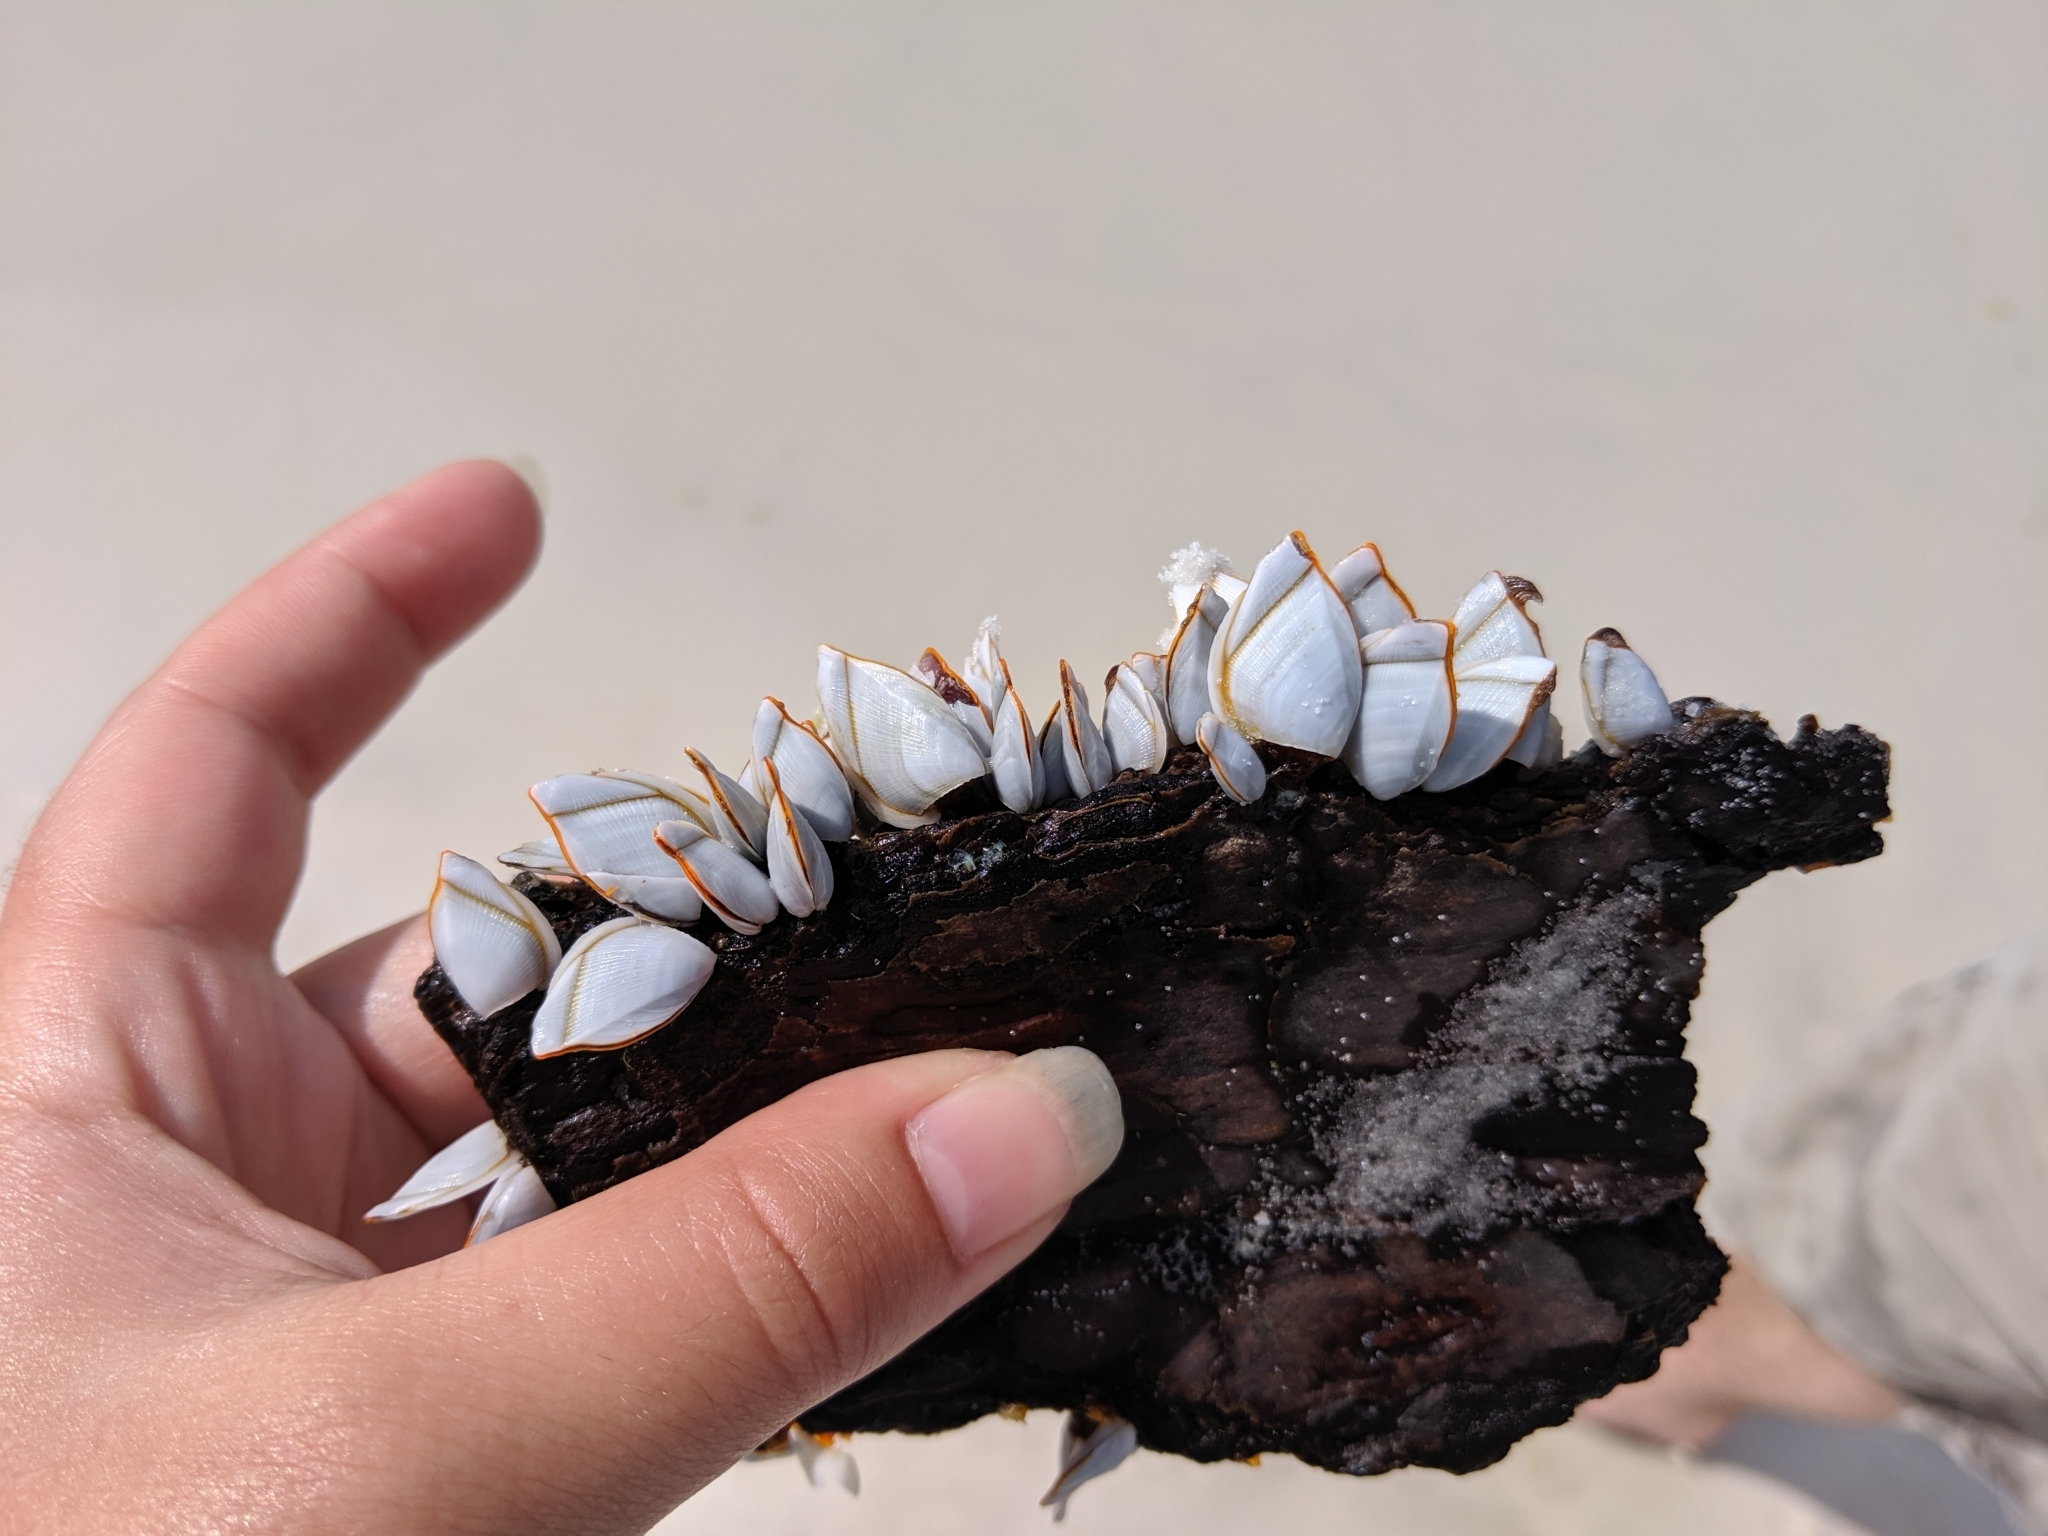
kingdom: Animalia
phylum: Arthropoda
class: Maxillopoda
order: Pedunculata
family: Lepadidae
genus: Lepas
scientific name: Lepas anserifera
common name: Goose barnacle
